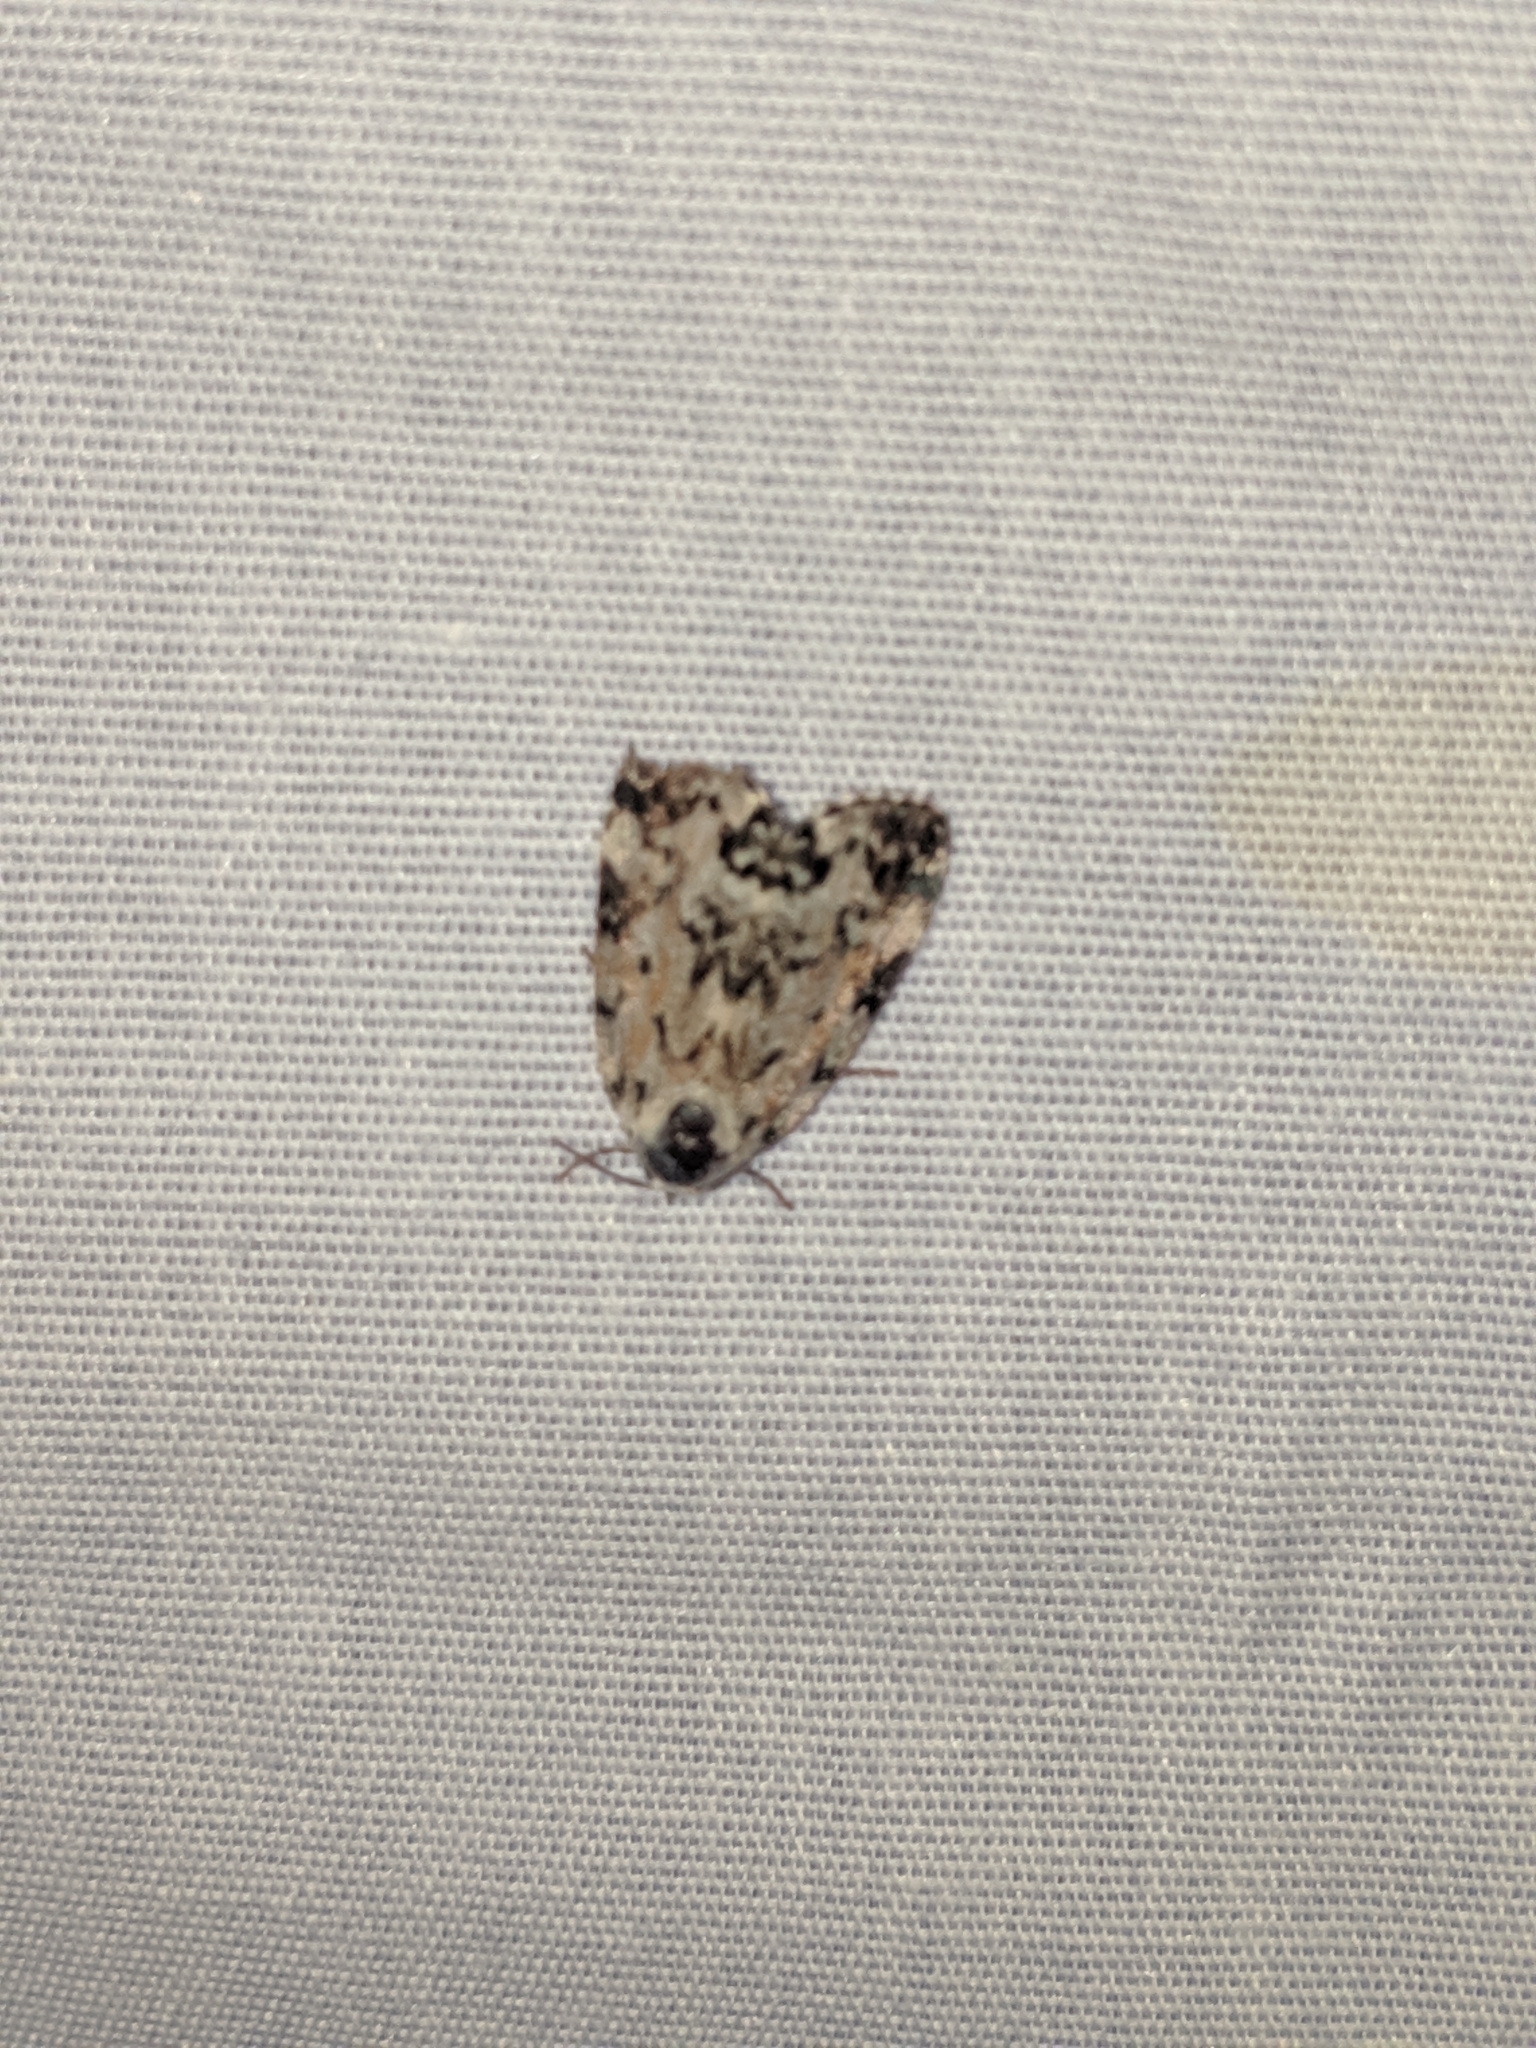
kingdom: Animalia
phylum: Arthropoda
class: Insecta
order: Lepidoptera
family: Noctuidae
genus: Polygrammate
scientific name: Polygrammate hebraeicum
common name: Hebrew moth
